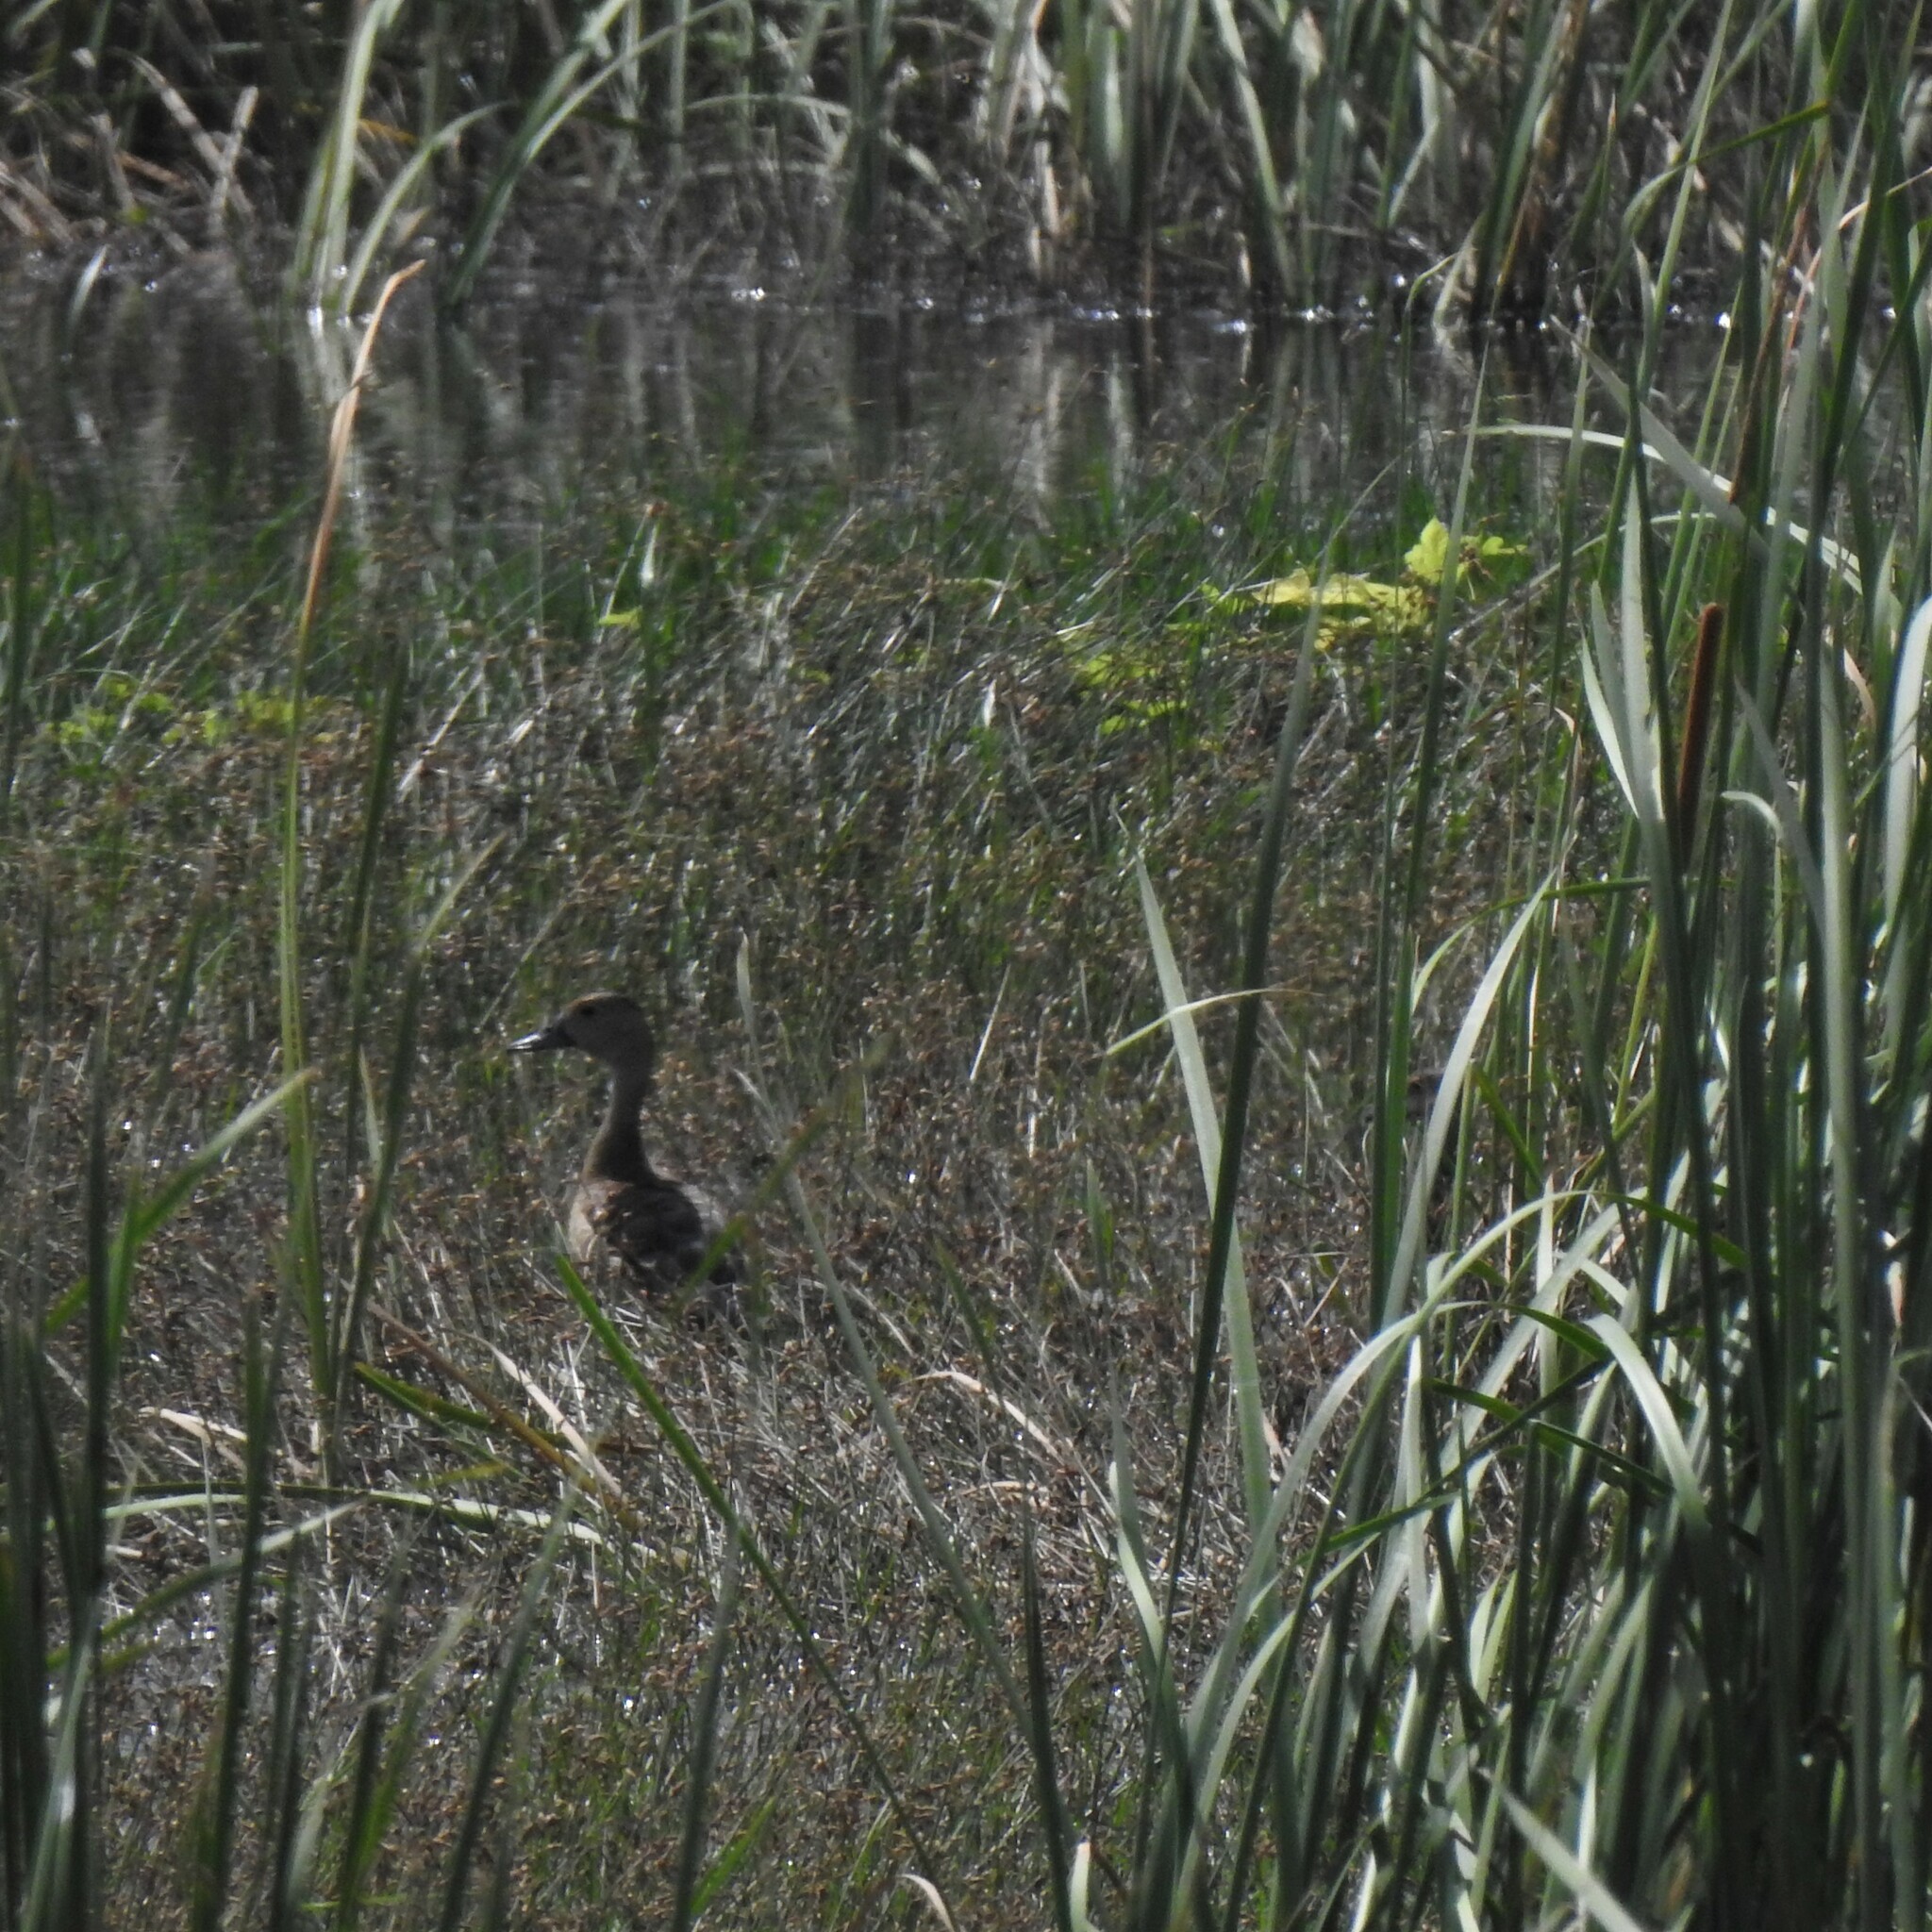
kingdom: Animalia
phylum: Chordata
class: Aves
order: Anseriformes
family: Anatidae
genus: Dendrocygna
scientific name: Dendrocygna javanica
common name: Lesser whistling-duck
